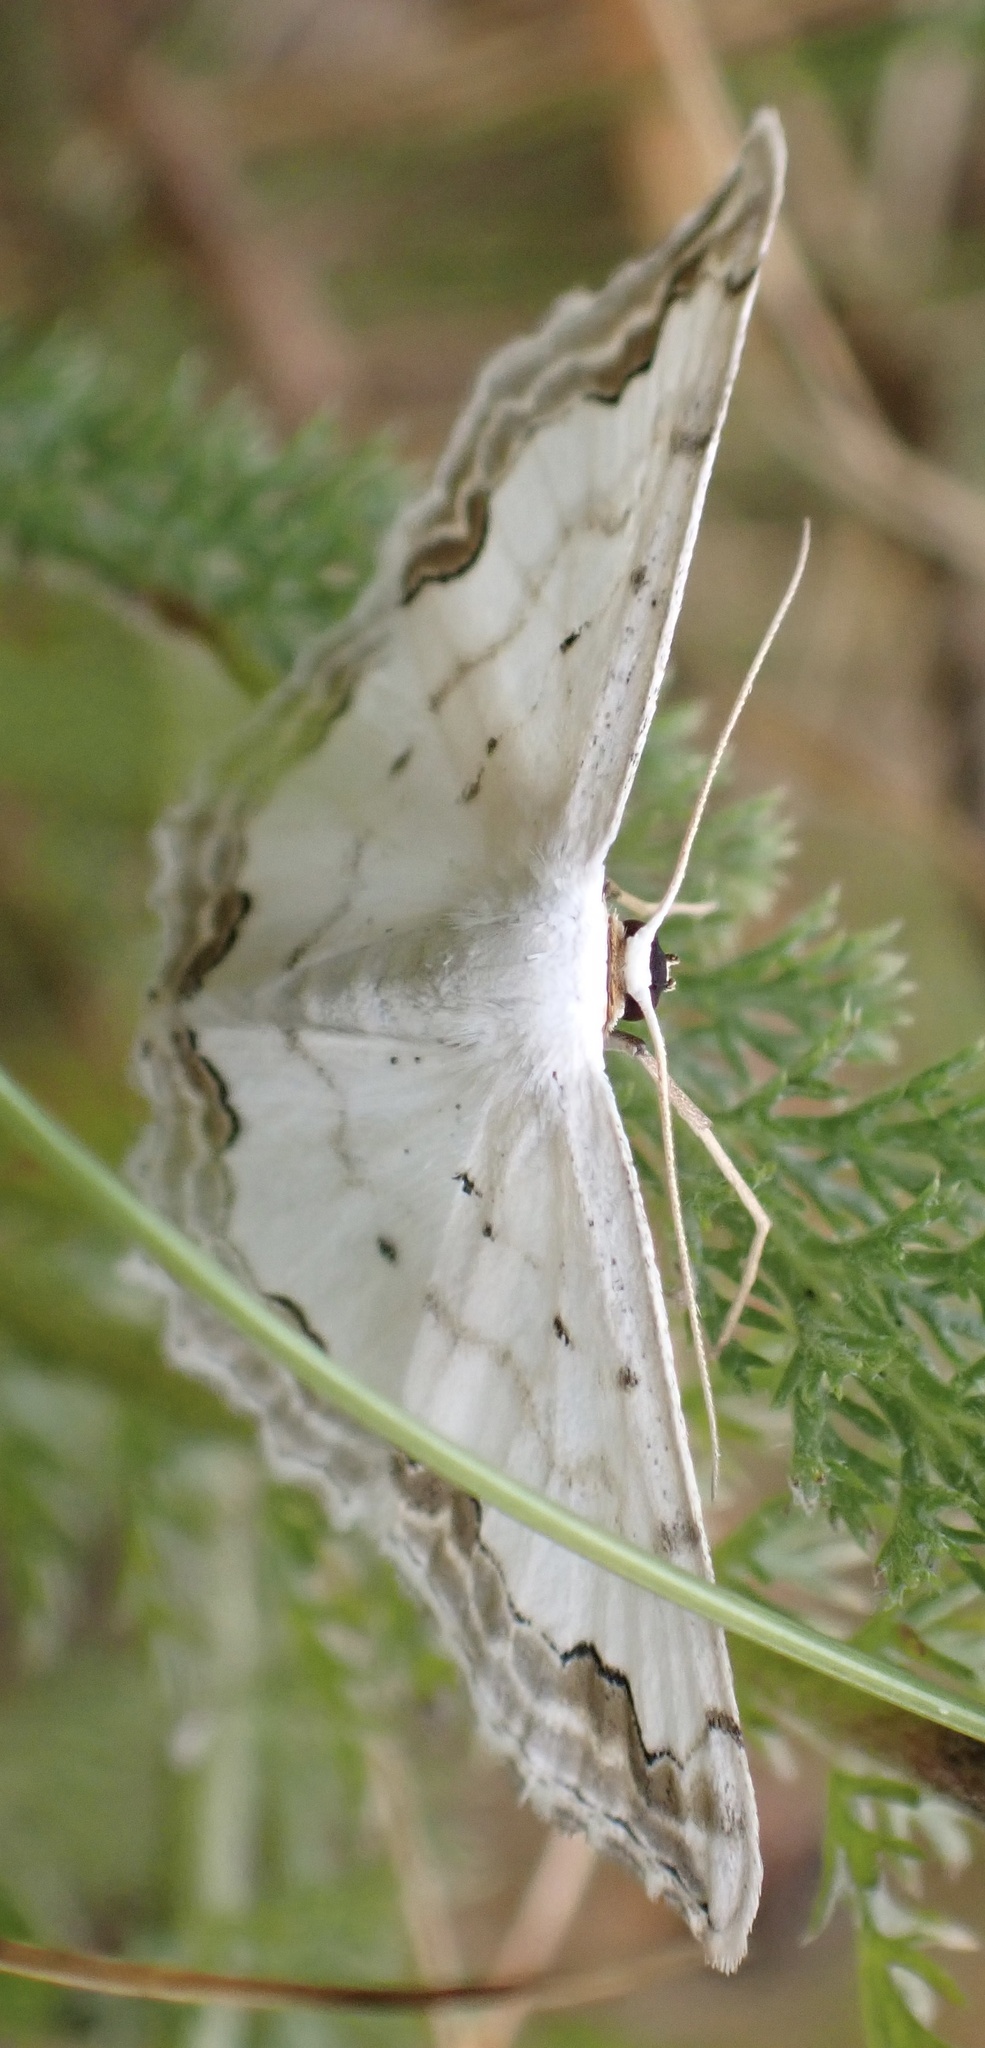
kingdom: Animalia
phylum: Arthropoda
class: Insecta
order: Lepidoptera
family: Geometridae
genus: Scopula
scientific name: Scopula ornata
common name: Lace border
